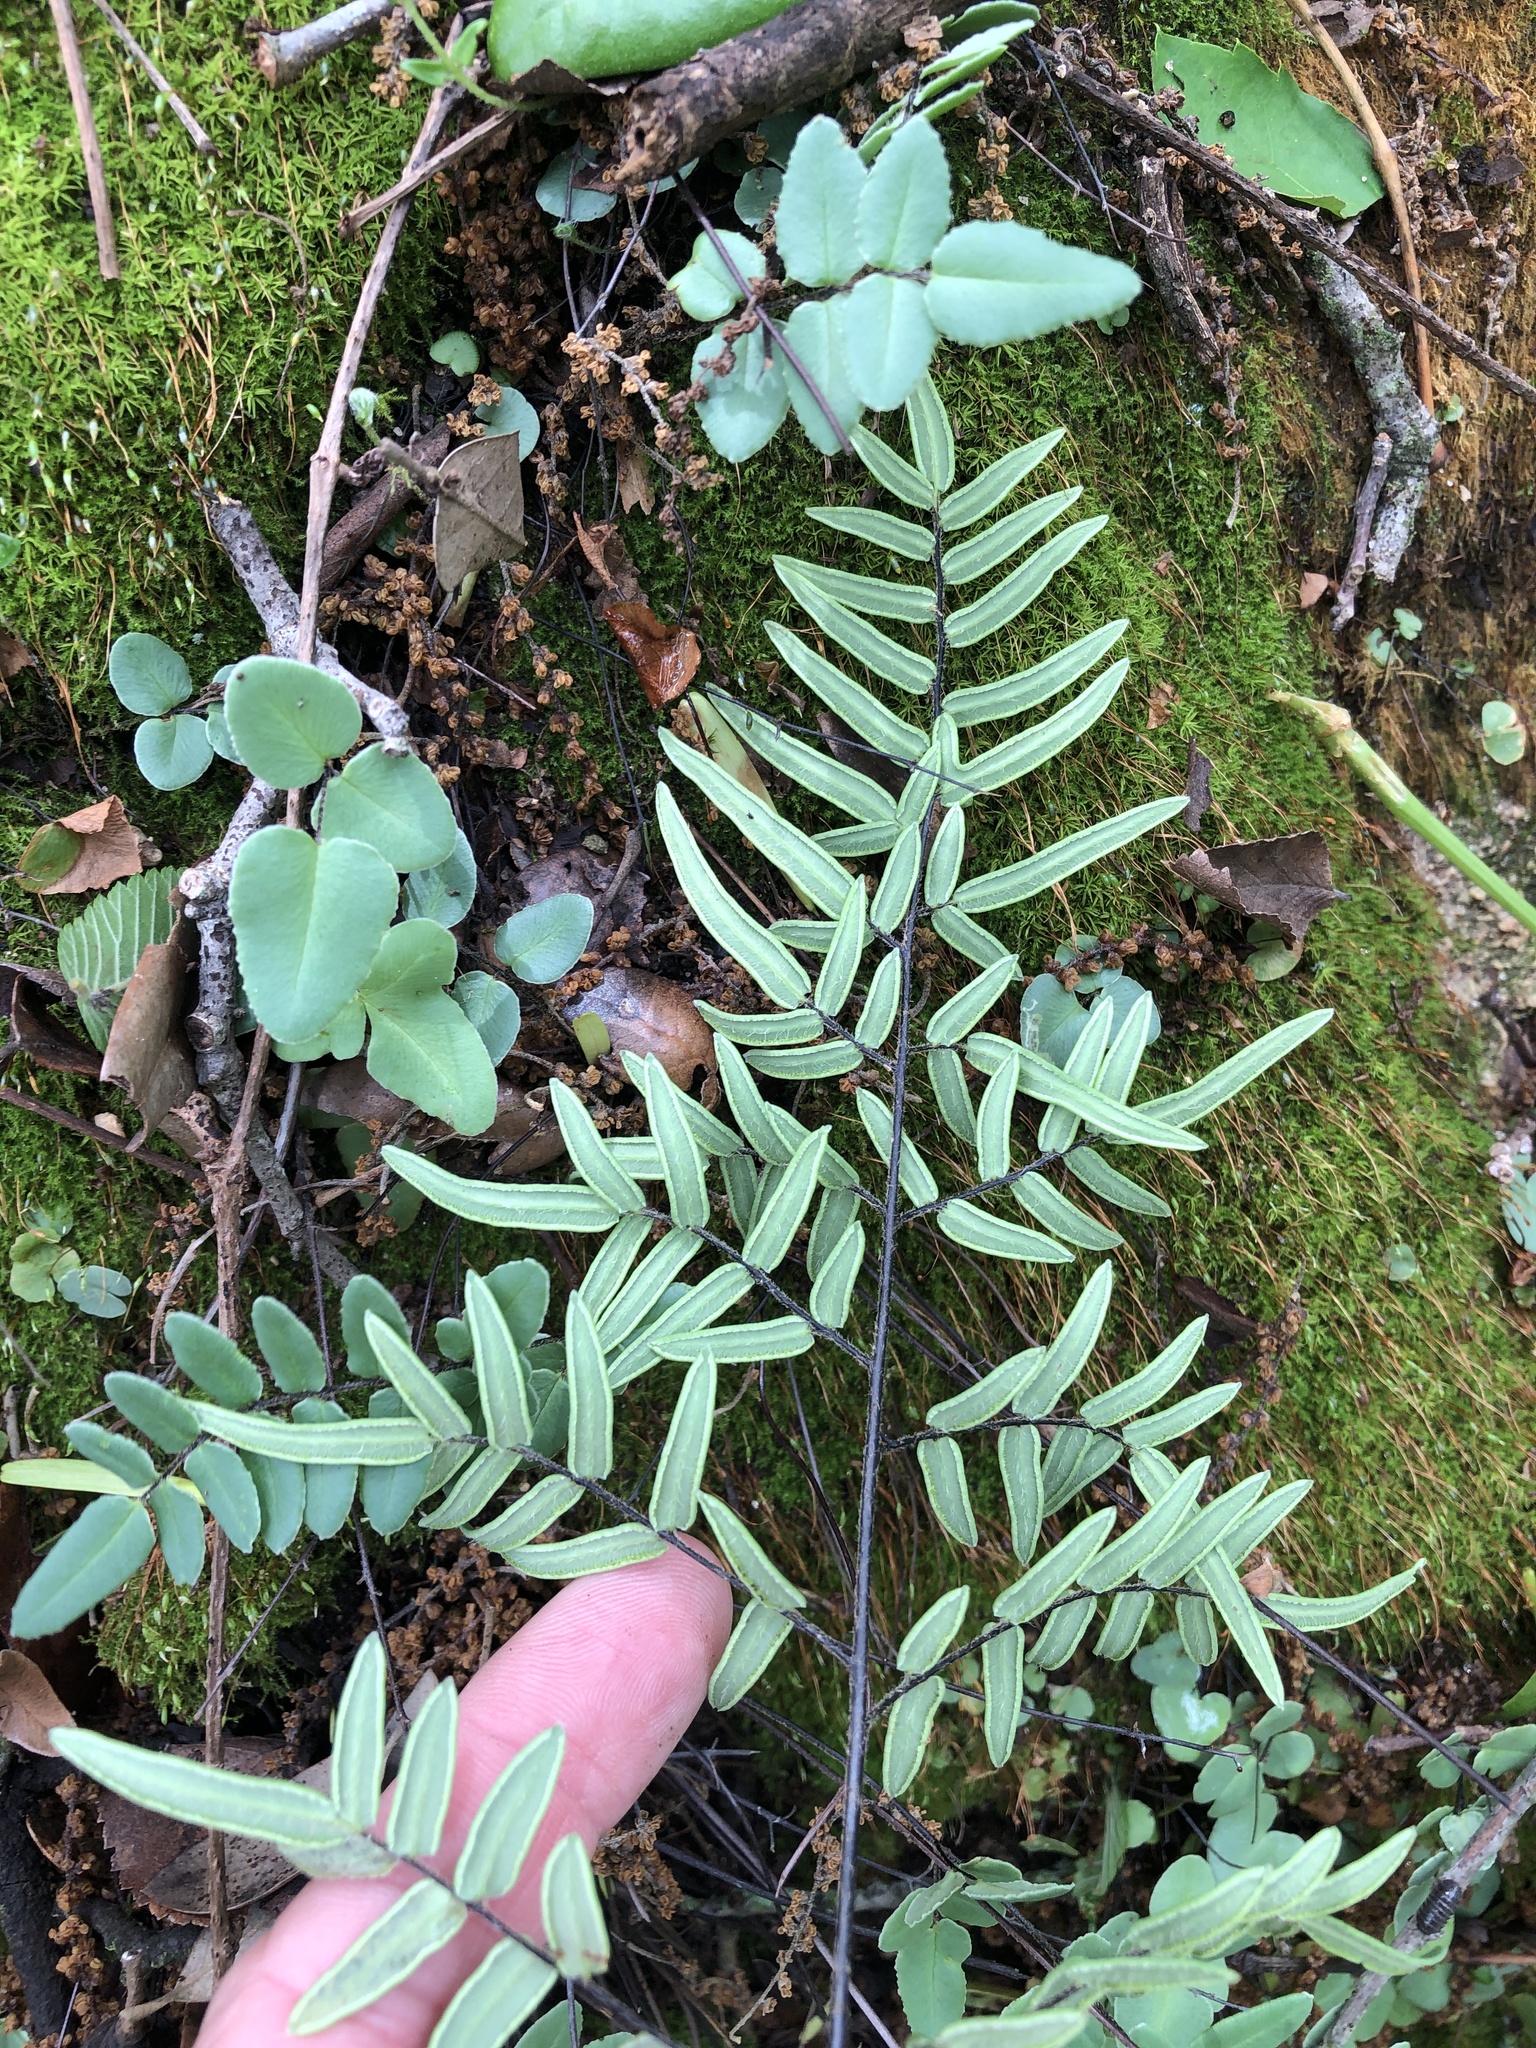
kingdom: Plantae
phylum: Tracheophyta
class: Polypodiopsida
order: Polypodiales
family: Pteridaceae
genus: Pellaea
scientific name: Pellaea atropurpurea
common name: Hairy cliffbrake
